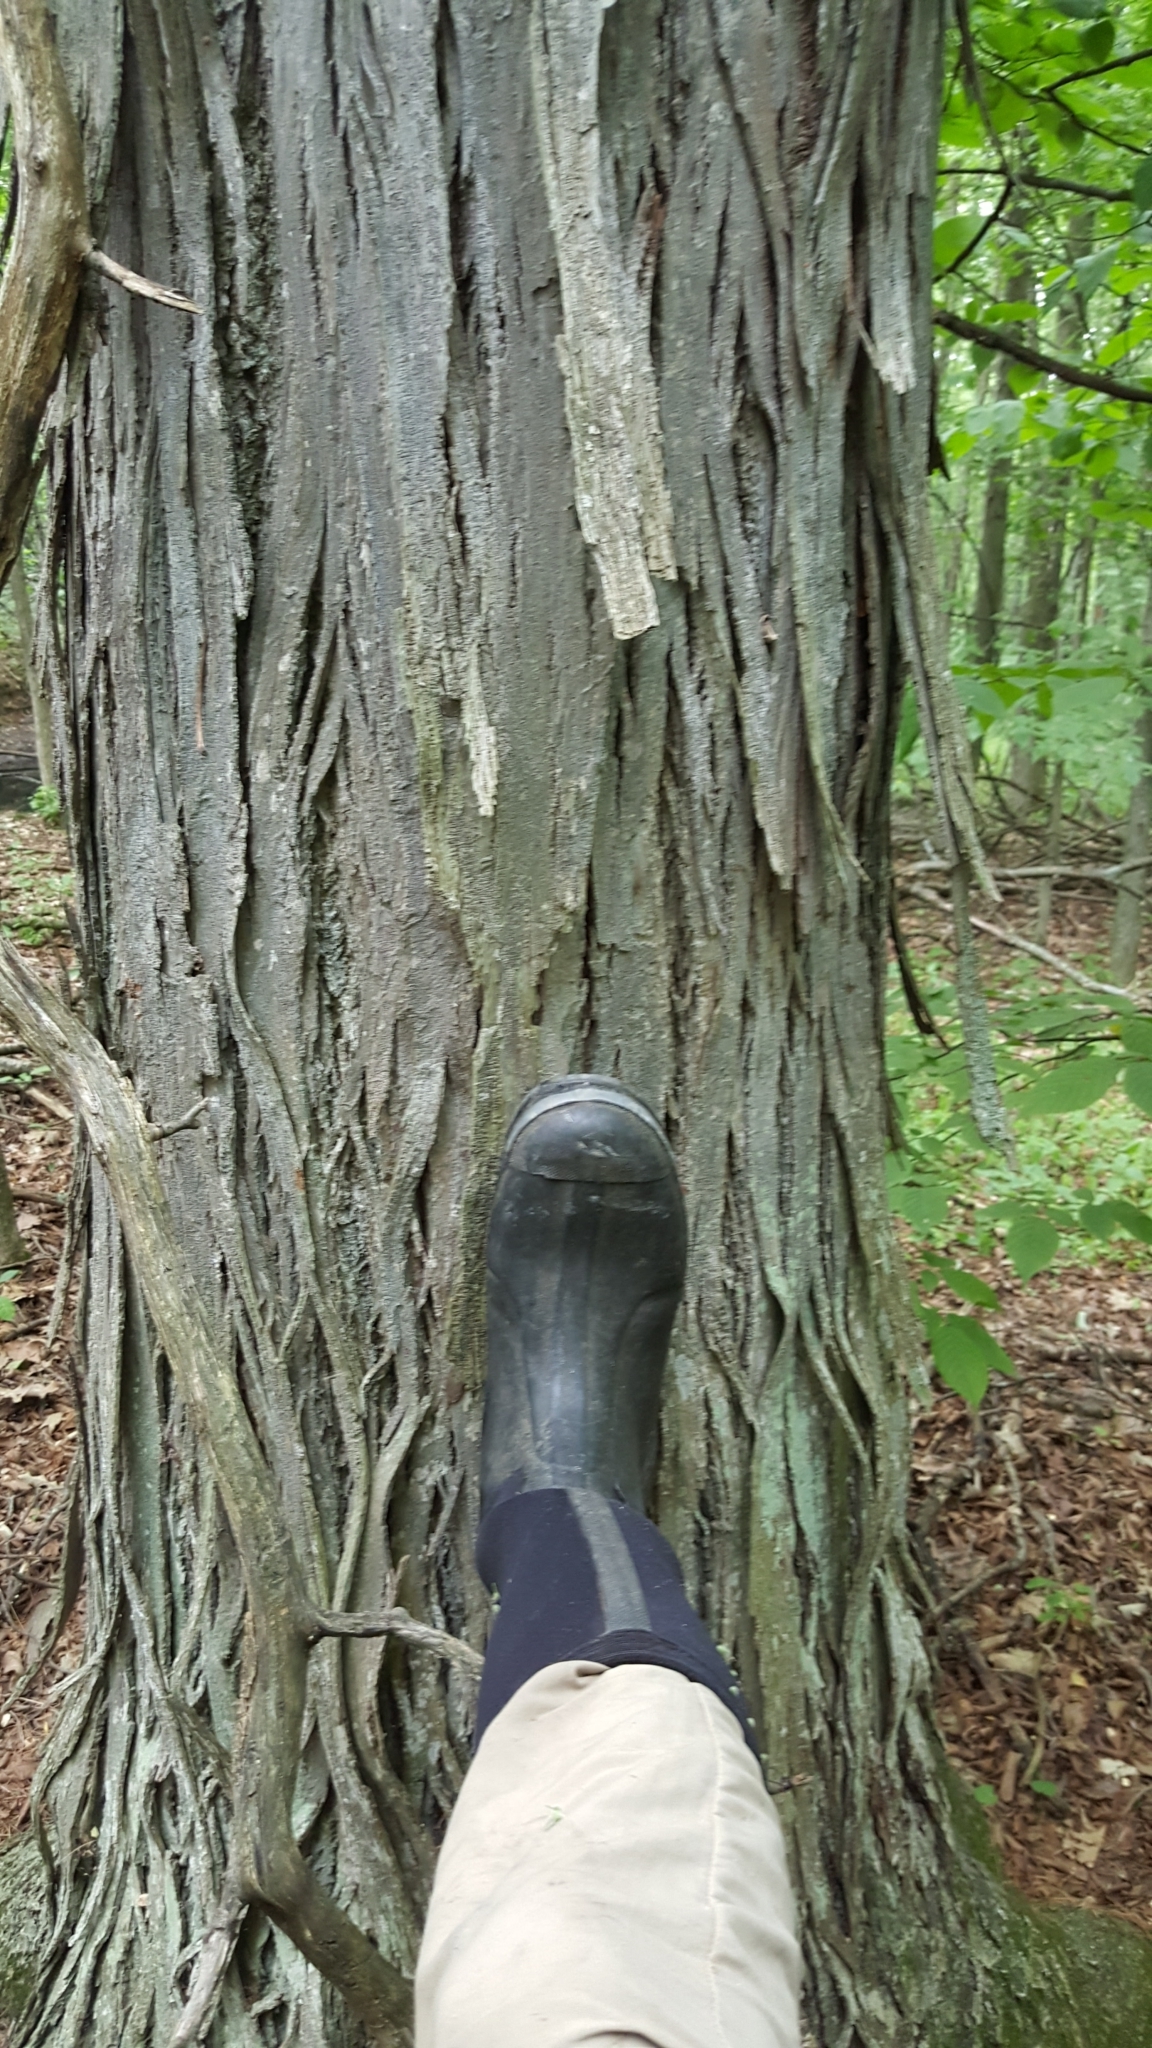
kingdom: Plantae
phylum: Tracheophyta
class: Magnoliopsida
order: Fagales
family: Juglandaceae
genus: Carya
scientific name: Carya ovata
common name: Shagbark hickory
